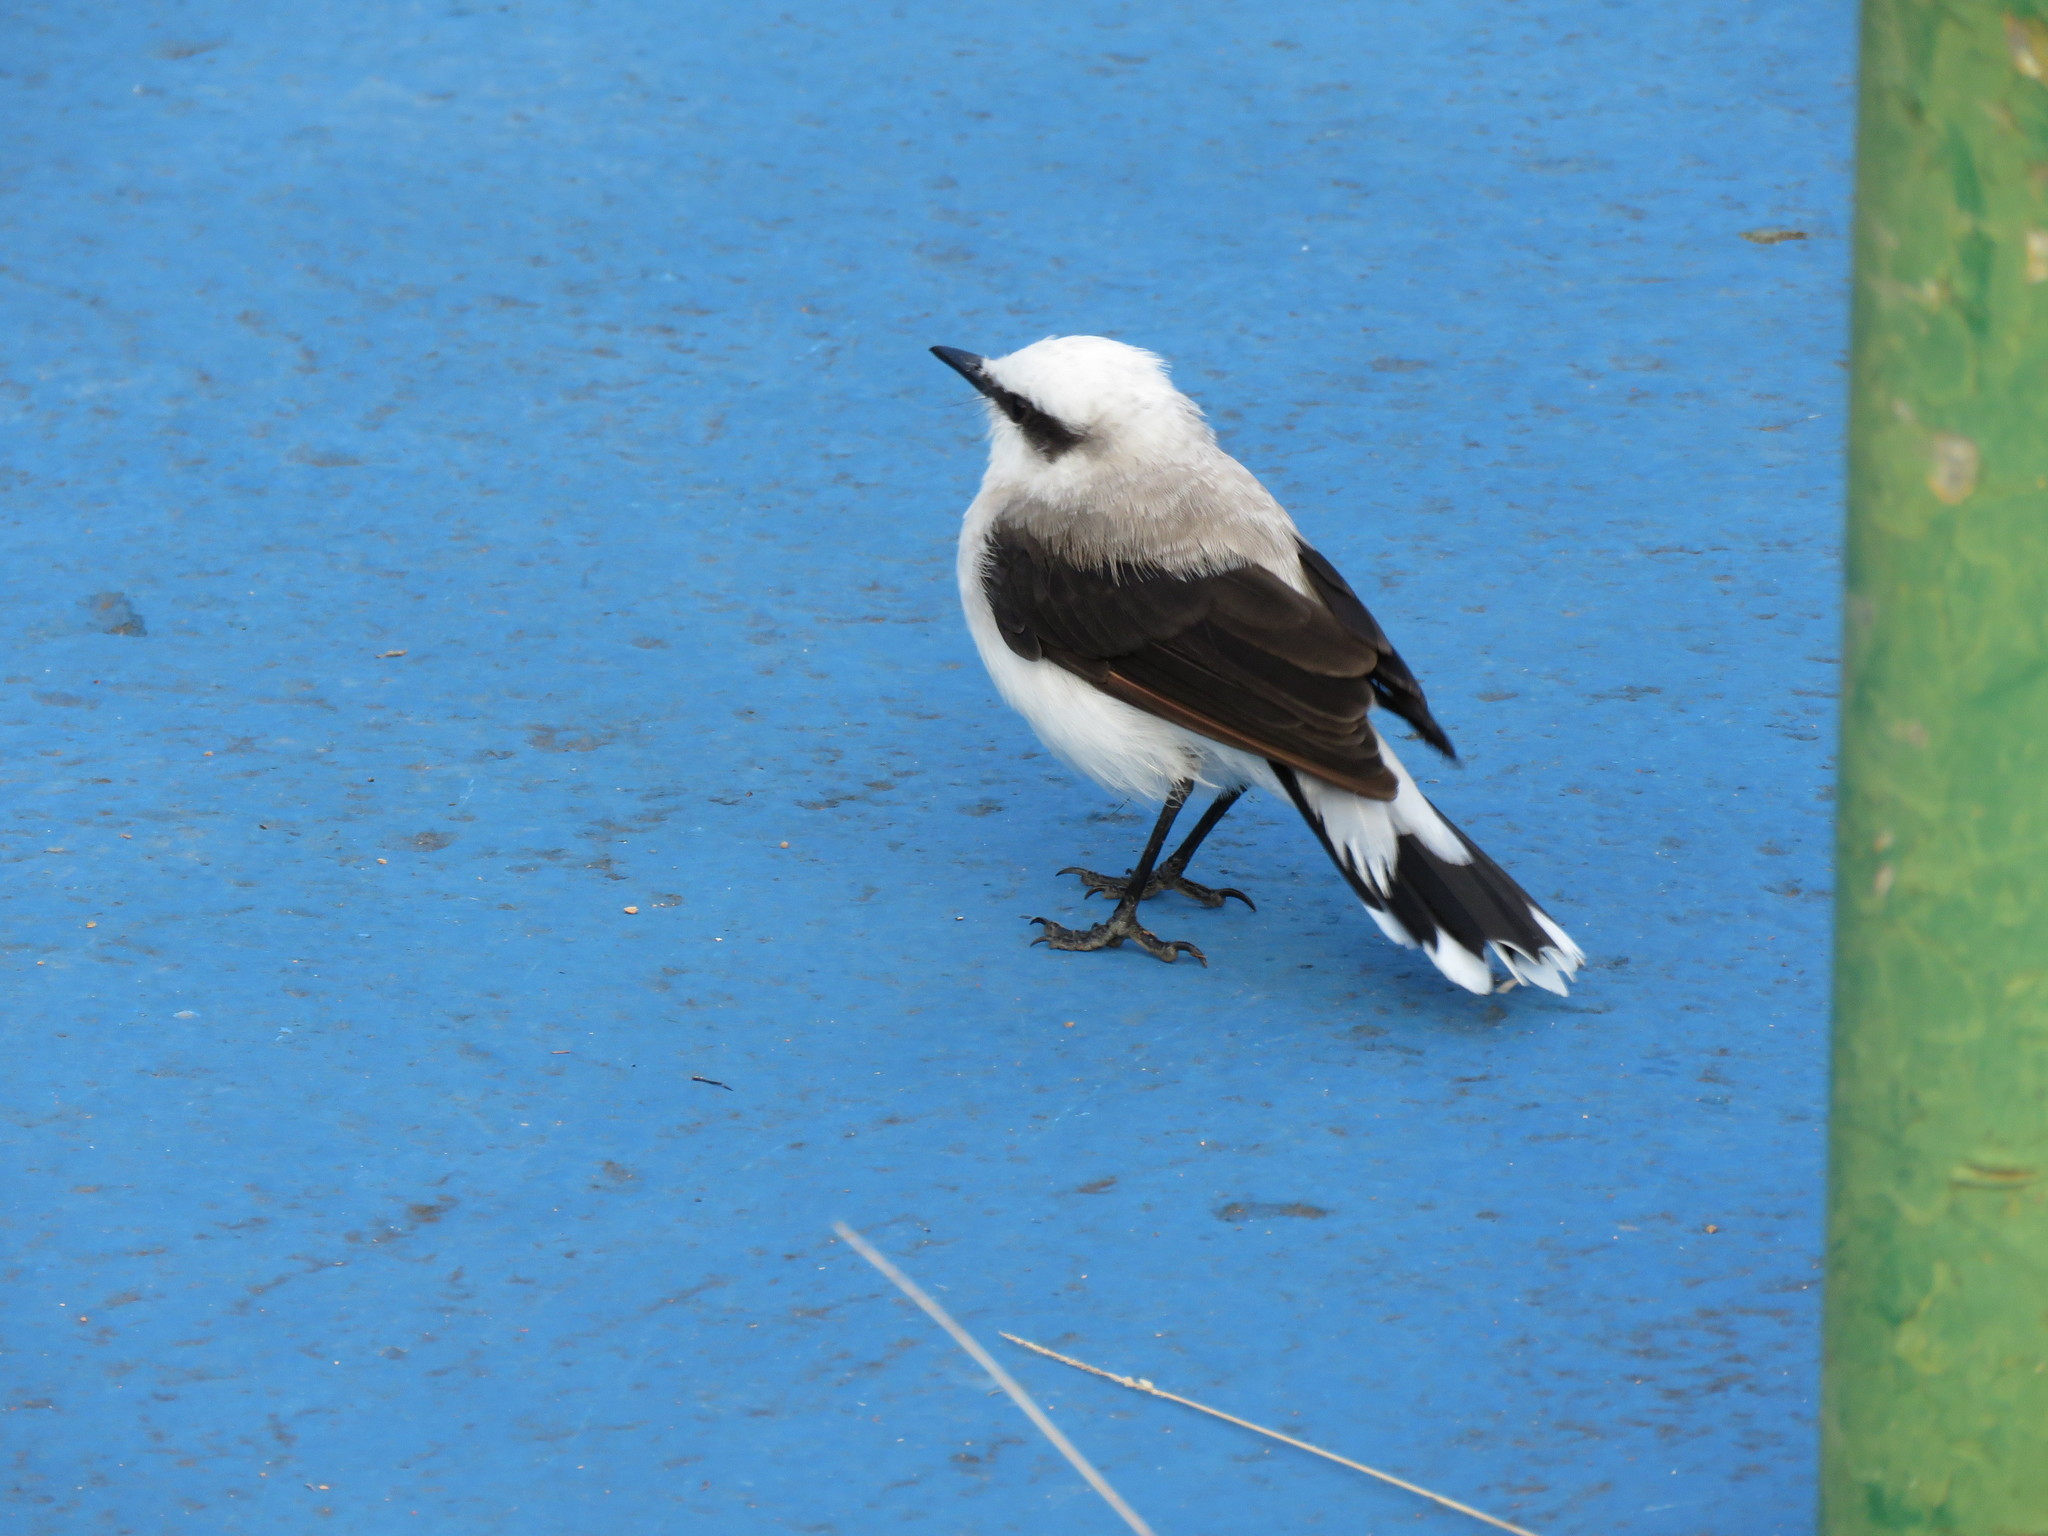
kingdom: Animalia
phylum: Chordata
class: Aves
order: Passeriformes
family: Tyrannidae
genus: Fluvicola
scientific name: Fluvicola nengeta
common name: Masked water tyrant
